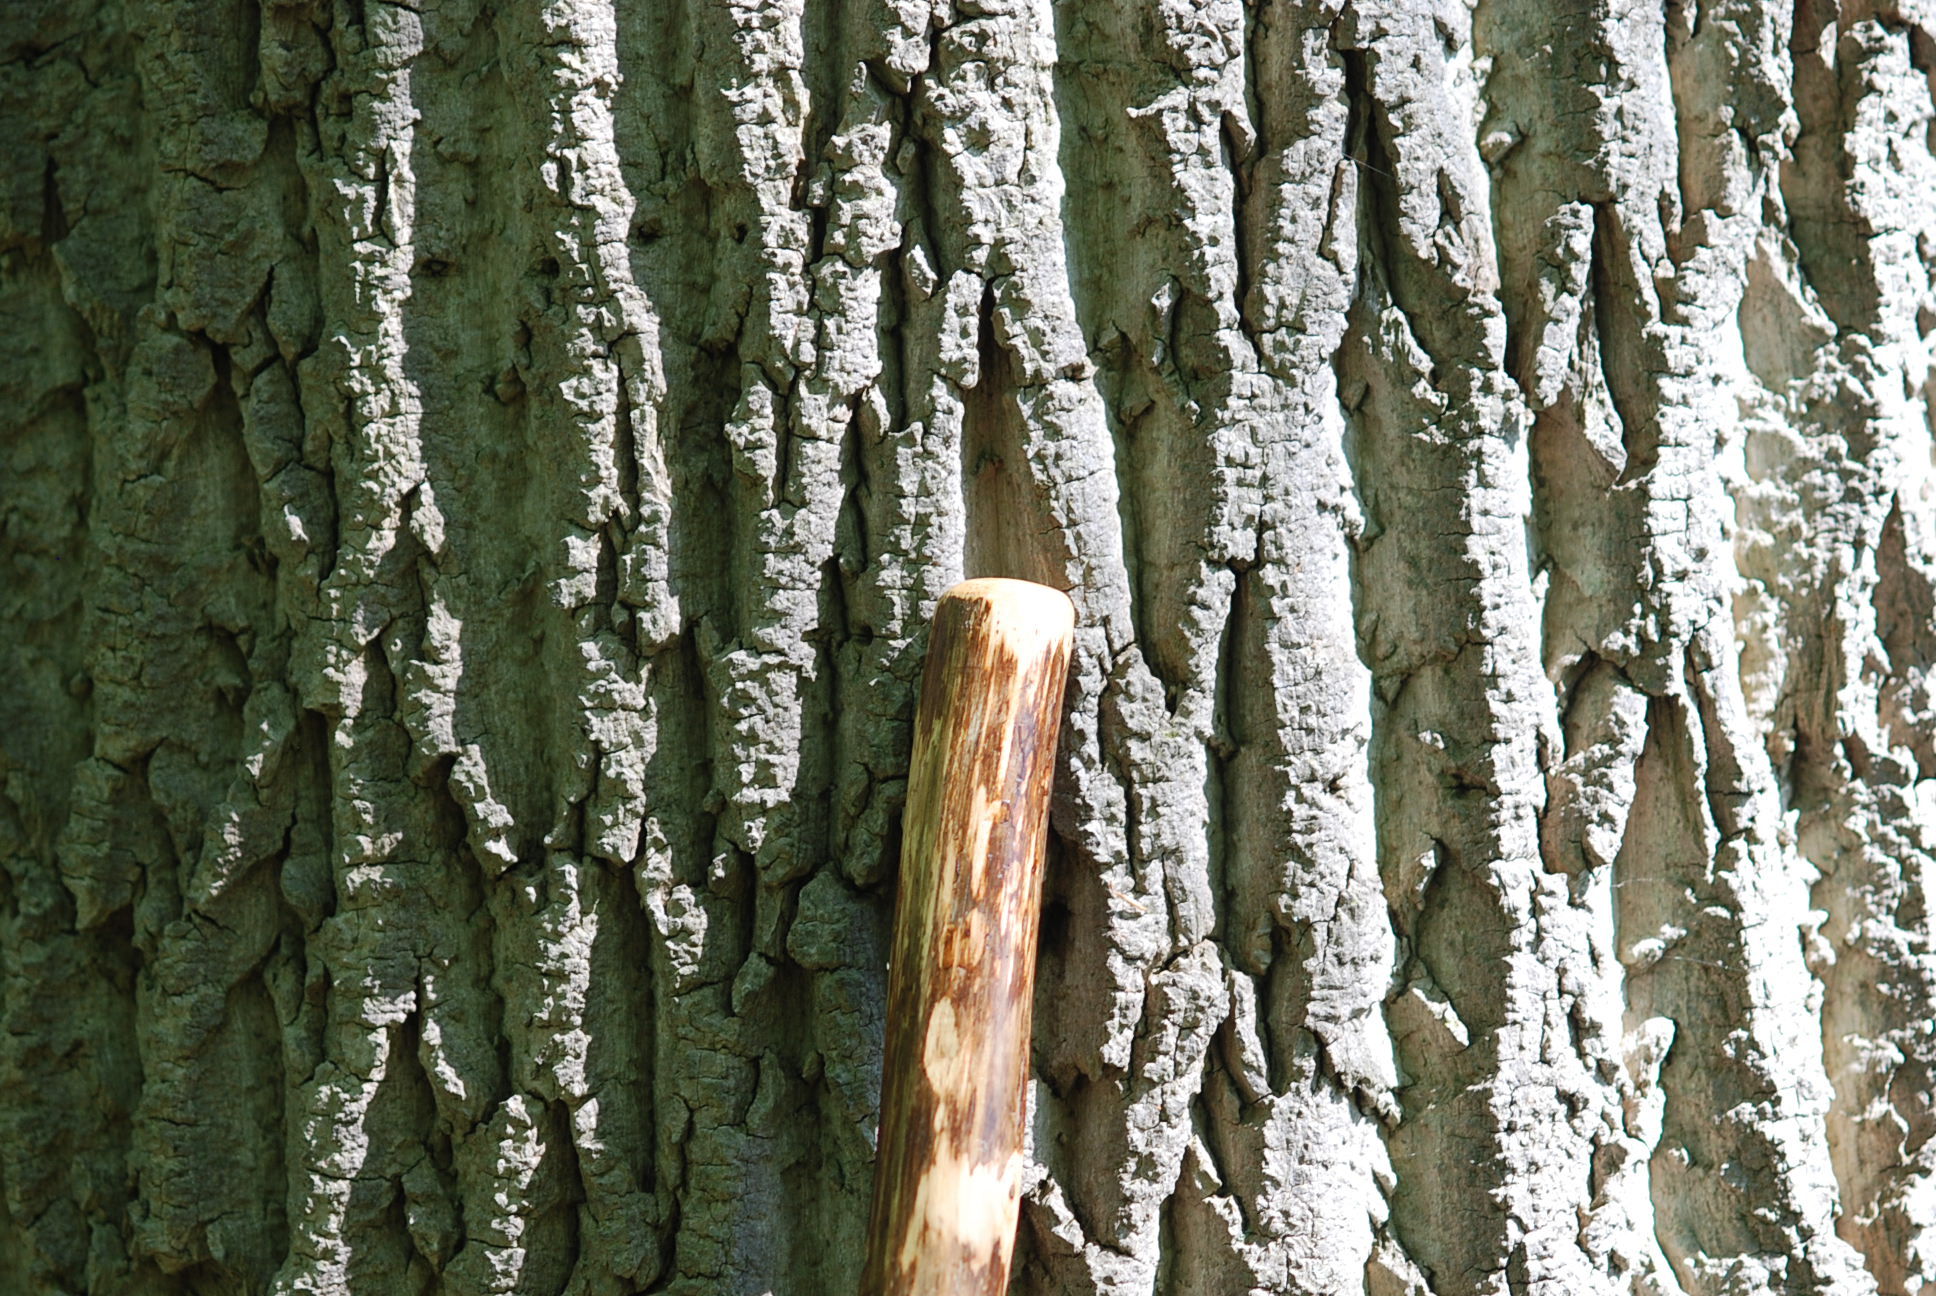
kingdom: Plantae
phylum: Tracheophyta
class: Magnoliopsida
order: Magnoliales
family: Magnoliaceae
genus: Liriodendron
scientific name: Liriodendron tulipifera
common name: Tulip tree
